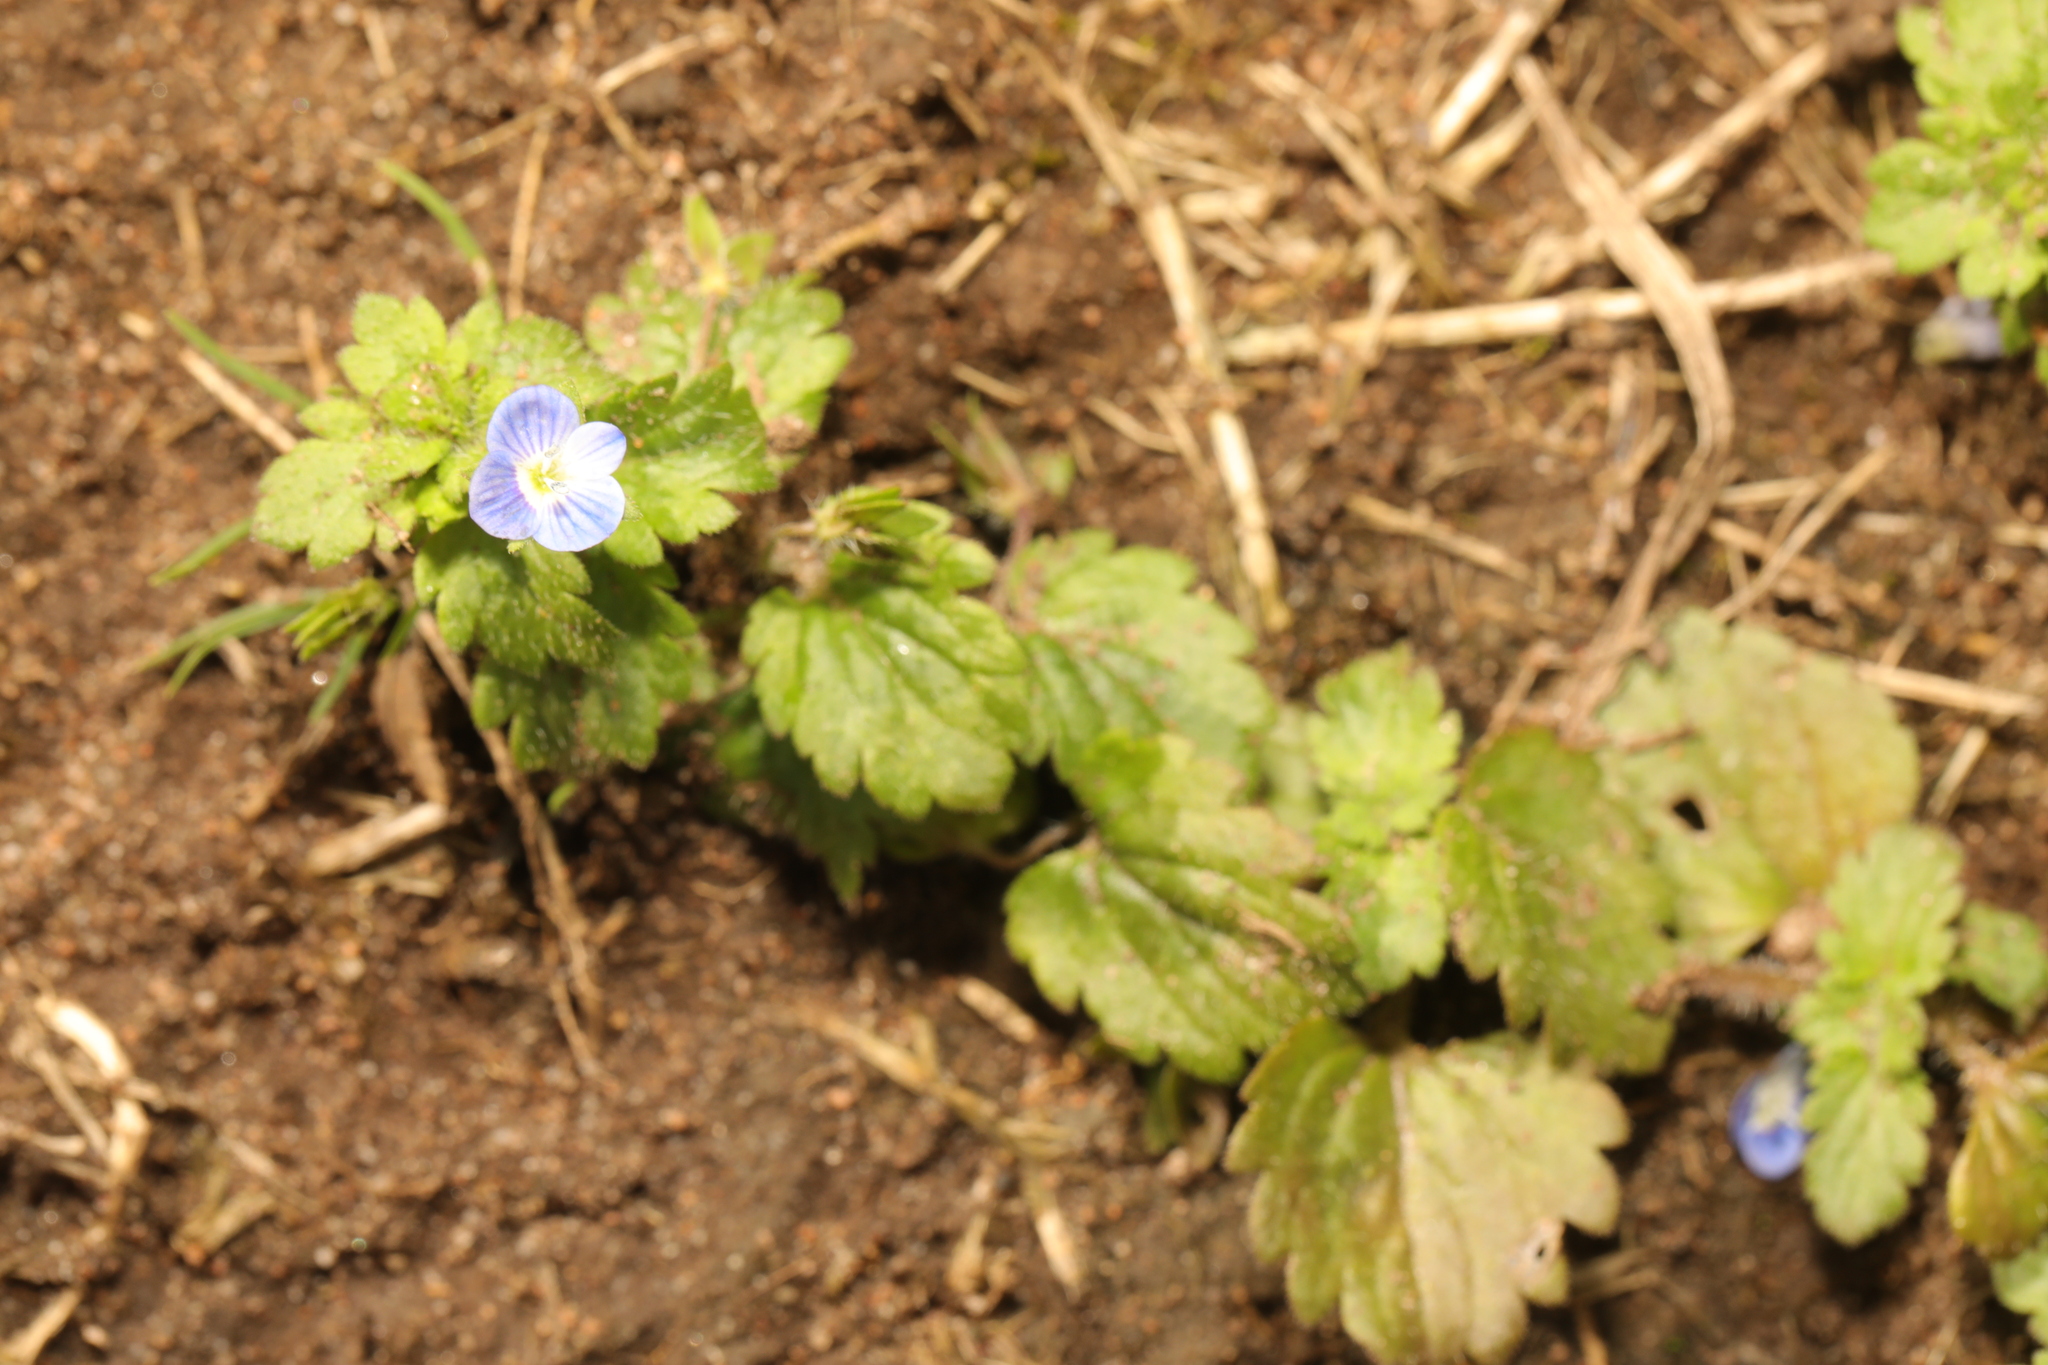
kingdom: Plantae
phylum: Tracheophyta
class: Magnoliopsida
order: Lamiales
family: Plantaginaceae
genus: Veronica
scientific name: Veronica persica
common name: Common field-speedwell
